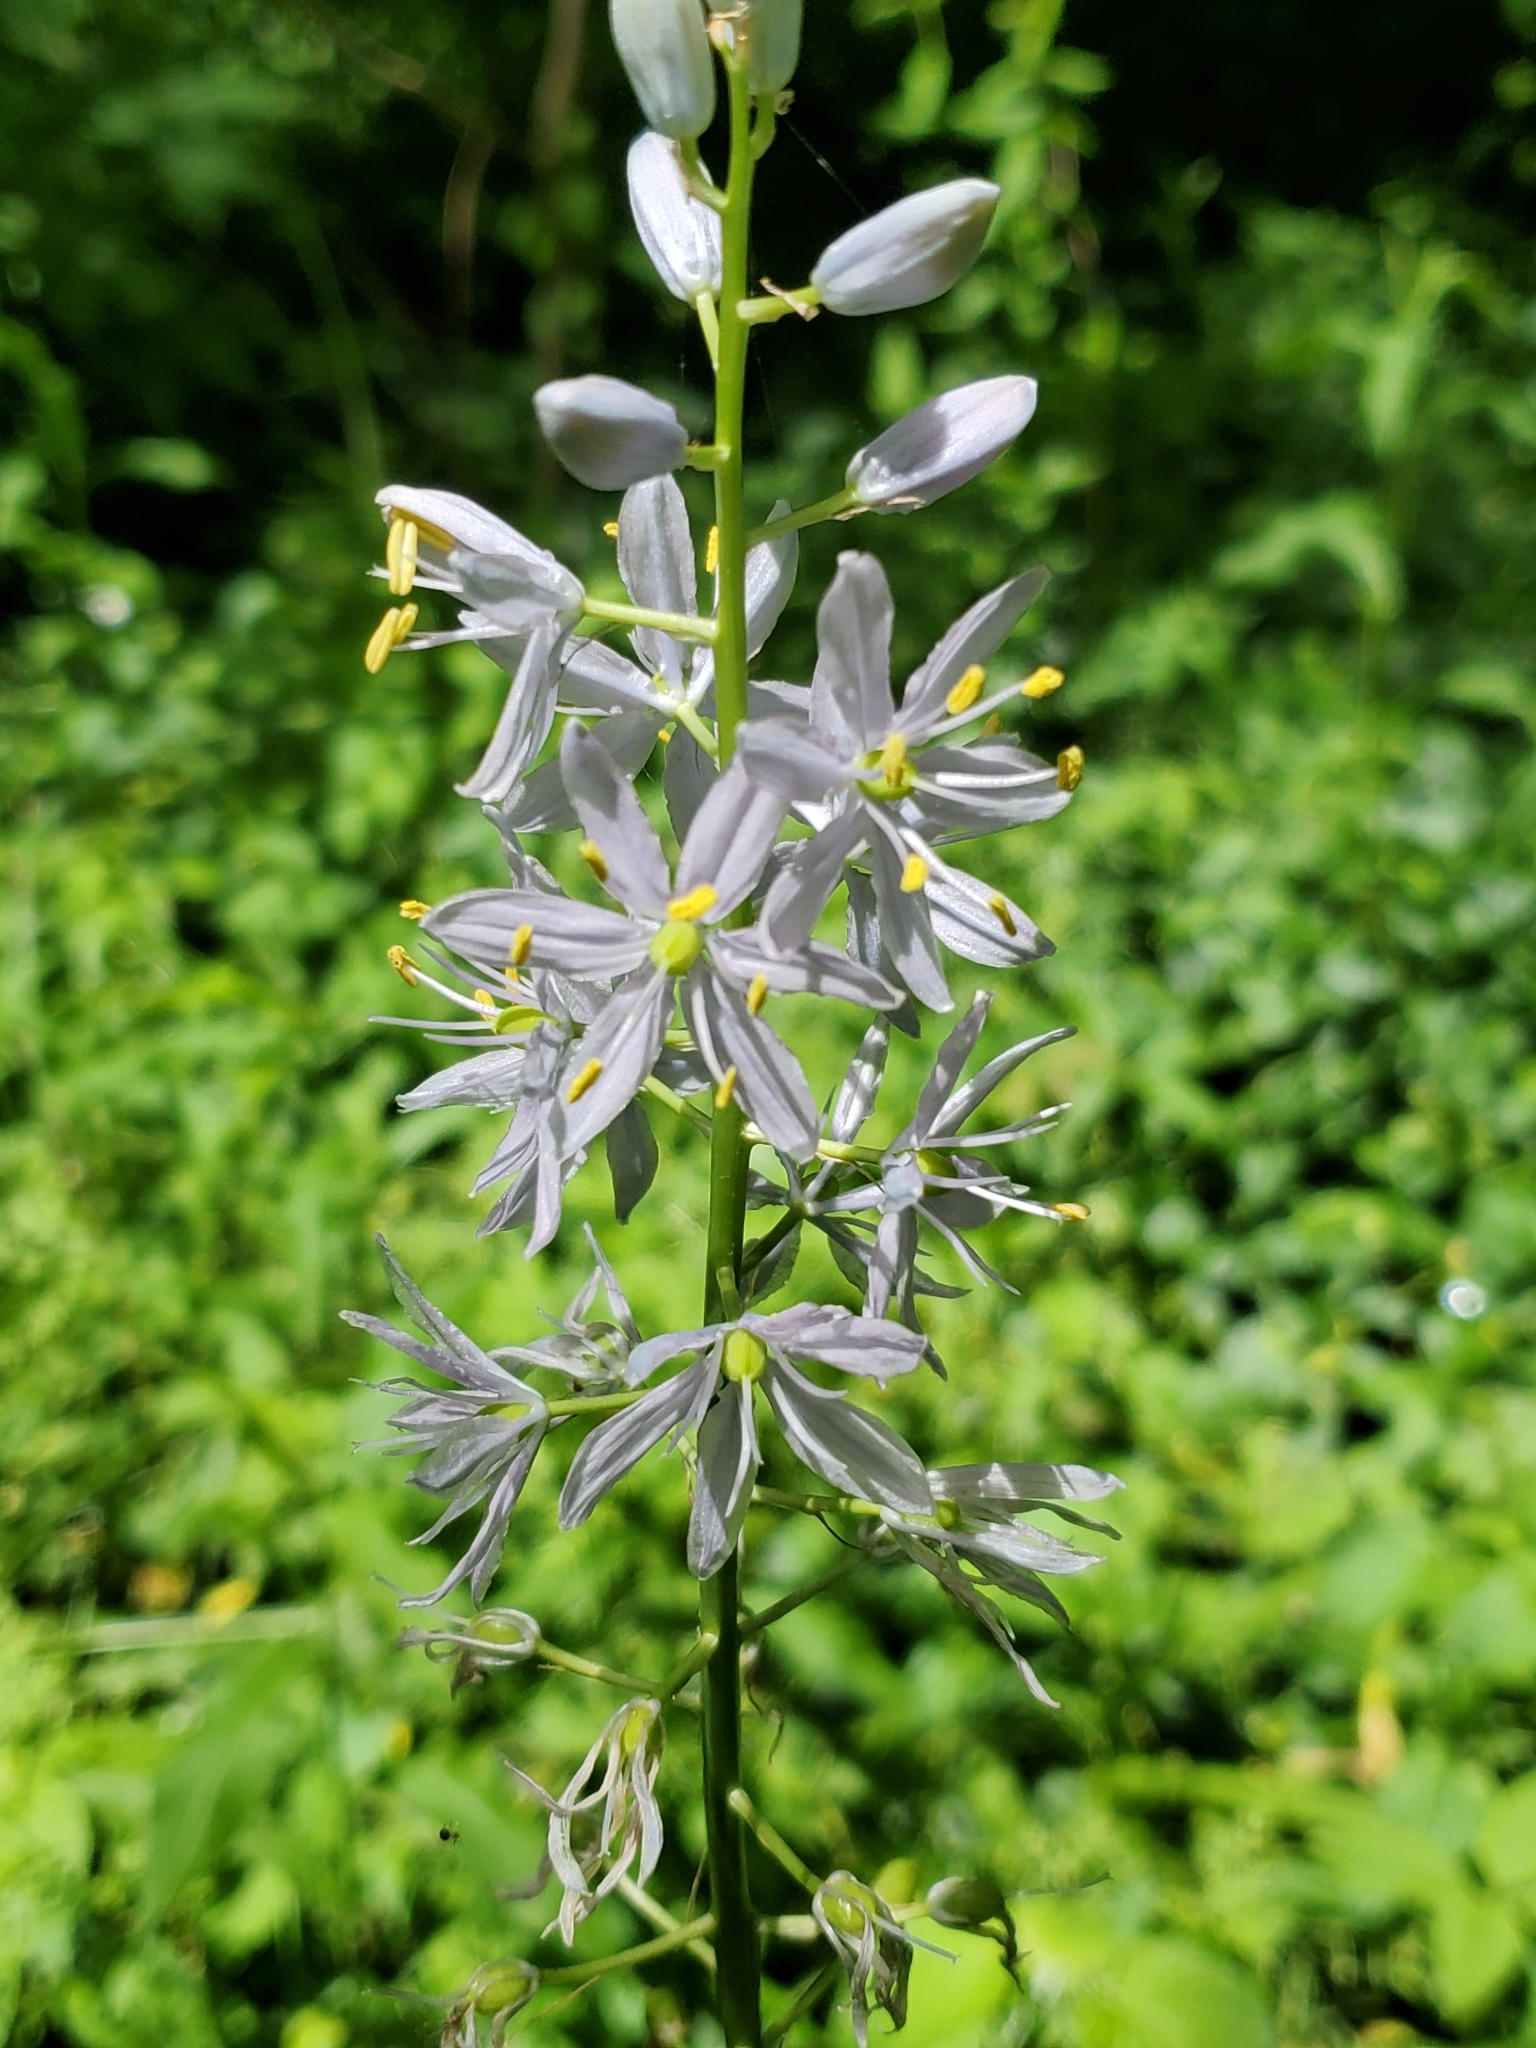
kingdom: Plantae
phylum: Tracheophyta
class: Liliopsida
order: Asparagales
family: Asparagaceae
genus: Camassia
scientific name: Camassia scilloides
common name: Wild hyacinth
